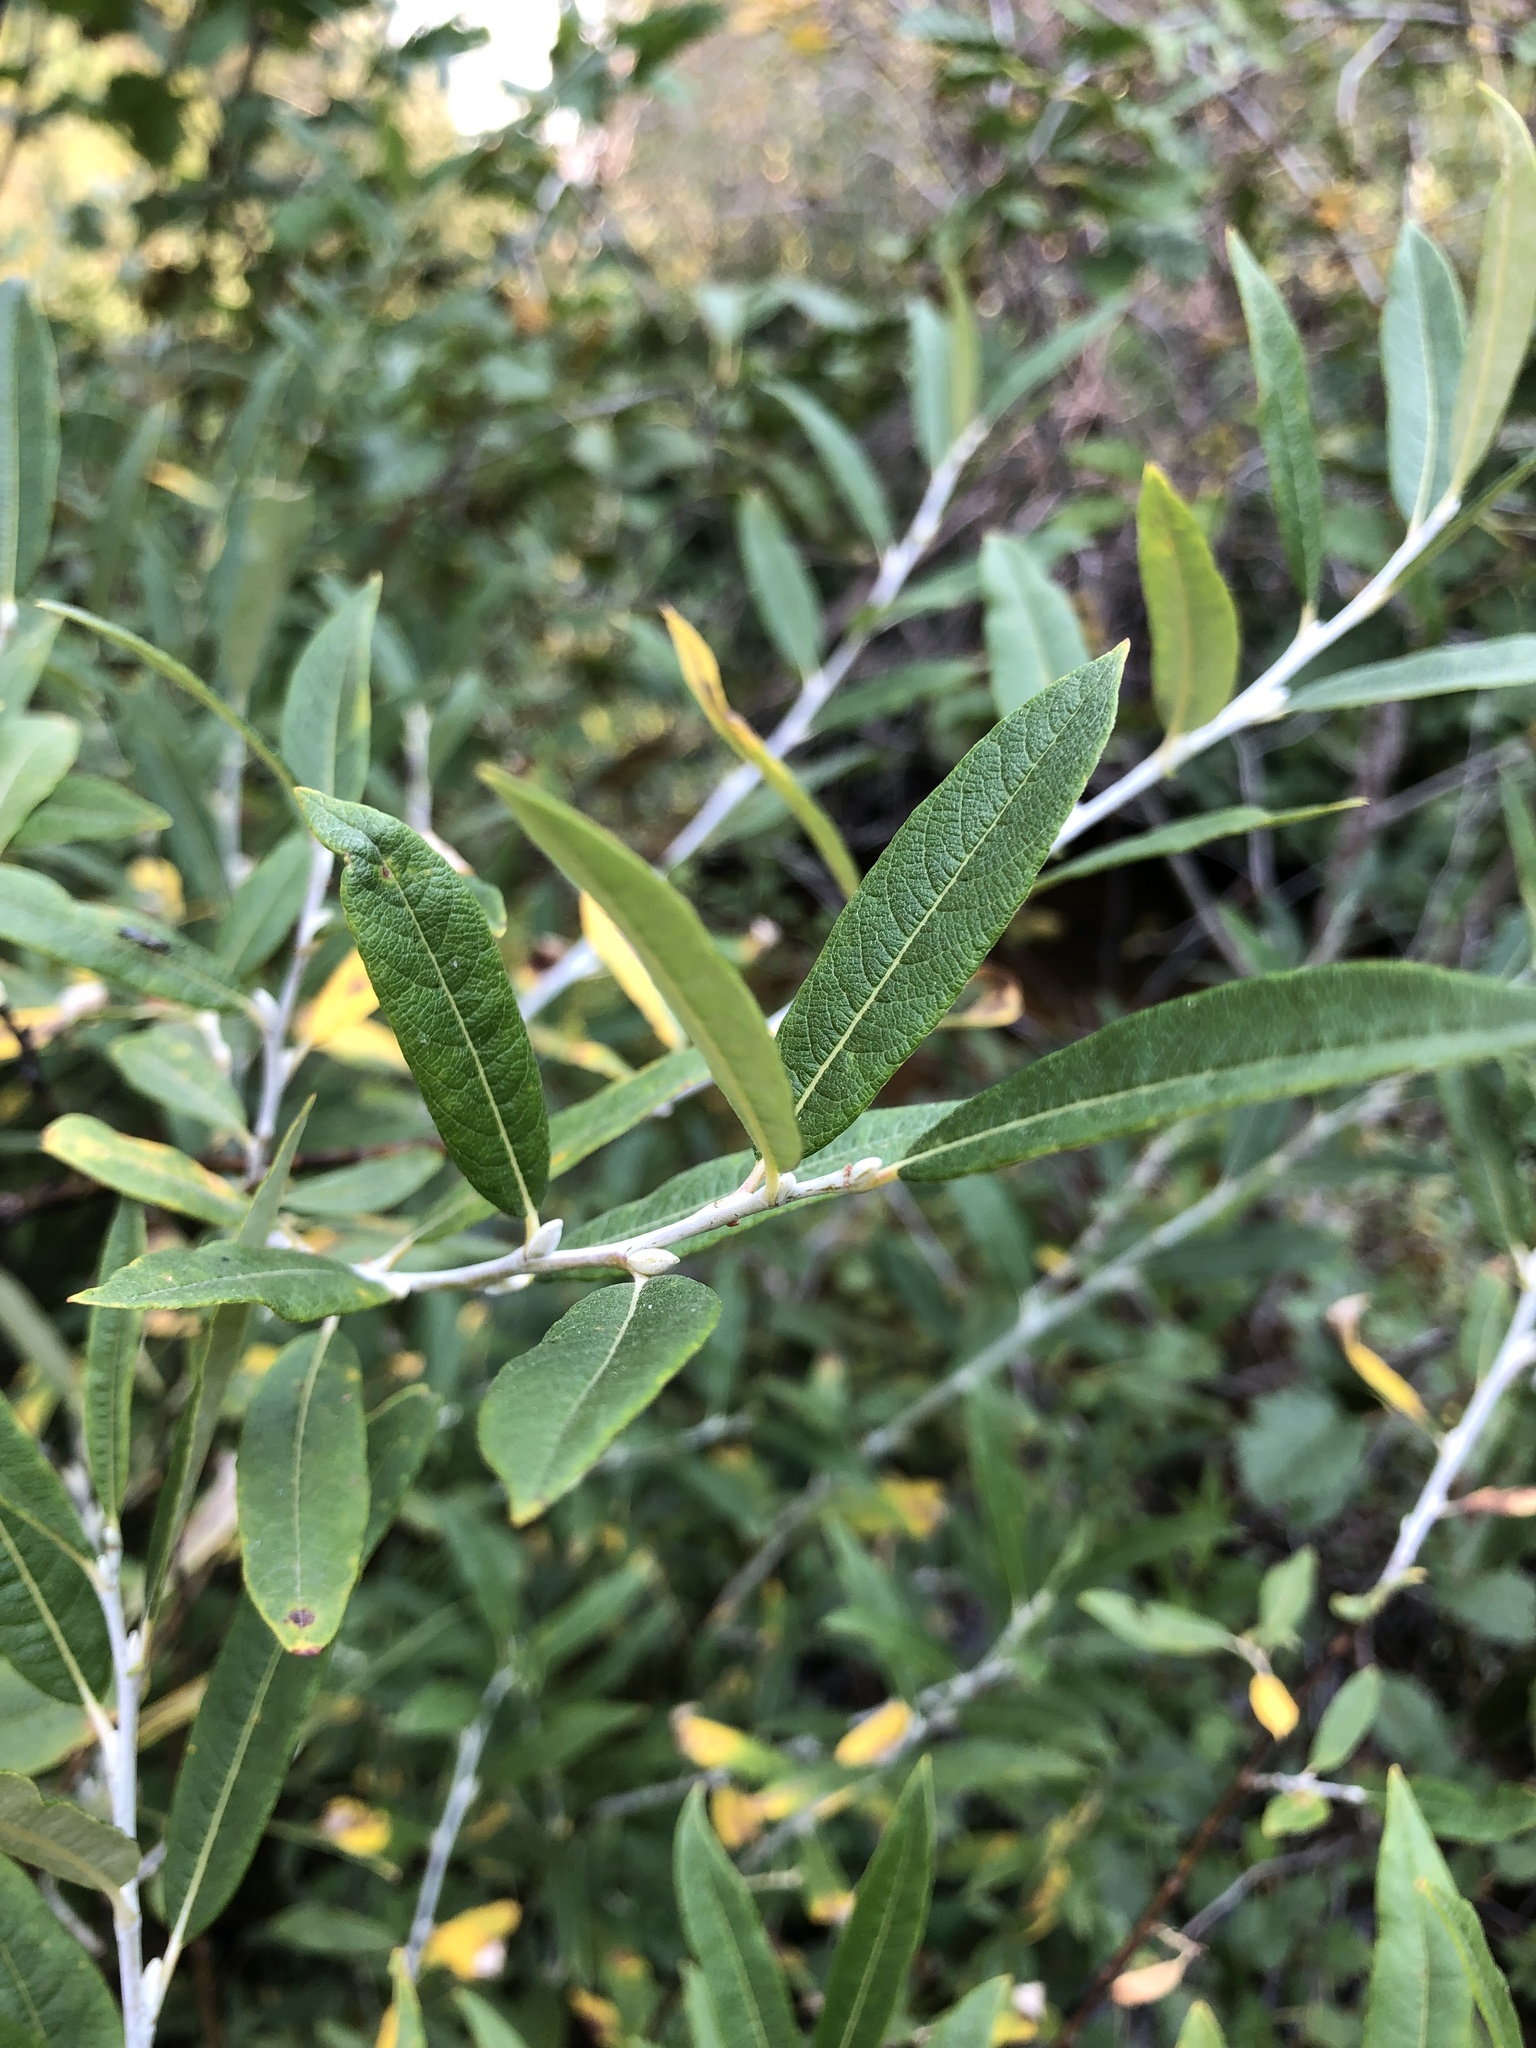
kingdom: Plantae
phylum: Tracheophyta
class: Magnoliopsida
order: Malpighiales
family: Salicaceae
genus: Salix
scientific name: Salix drummondiana
